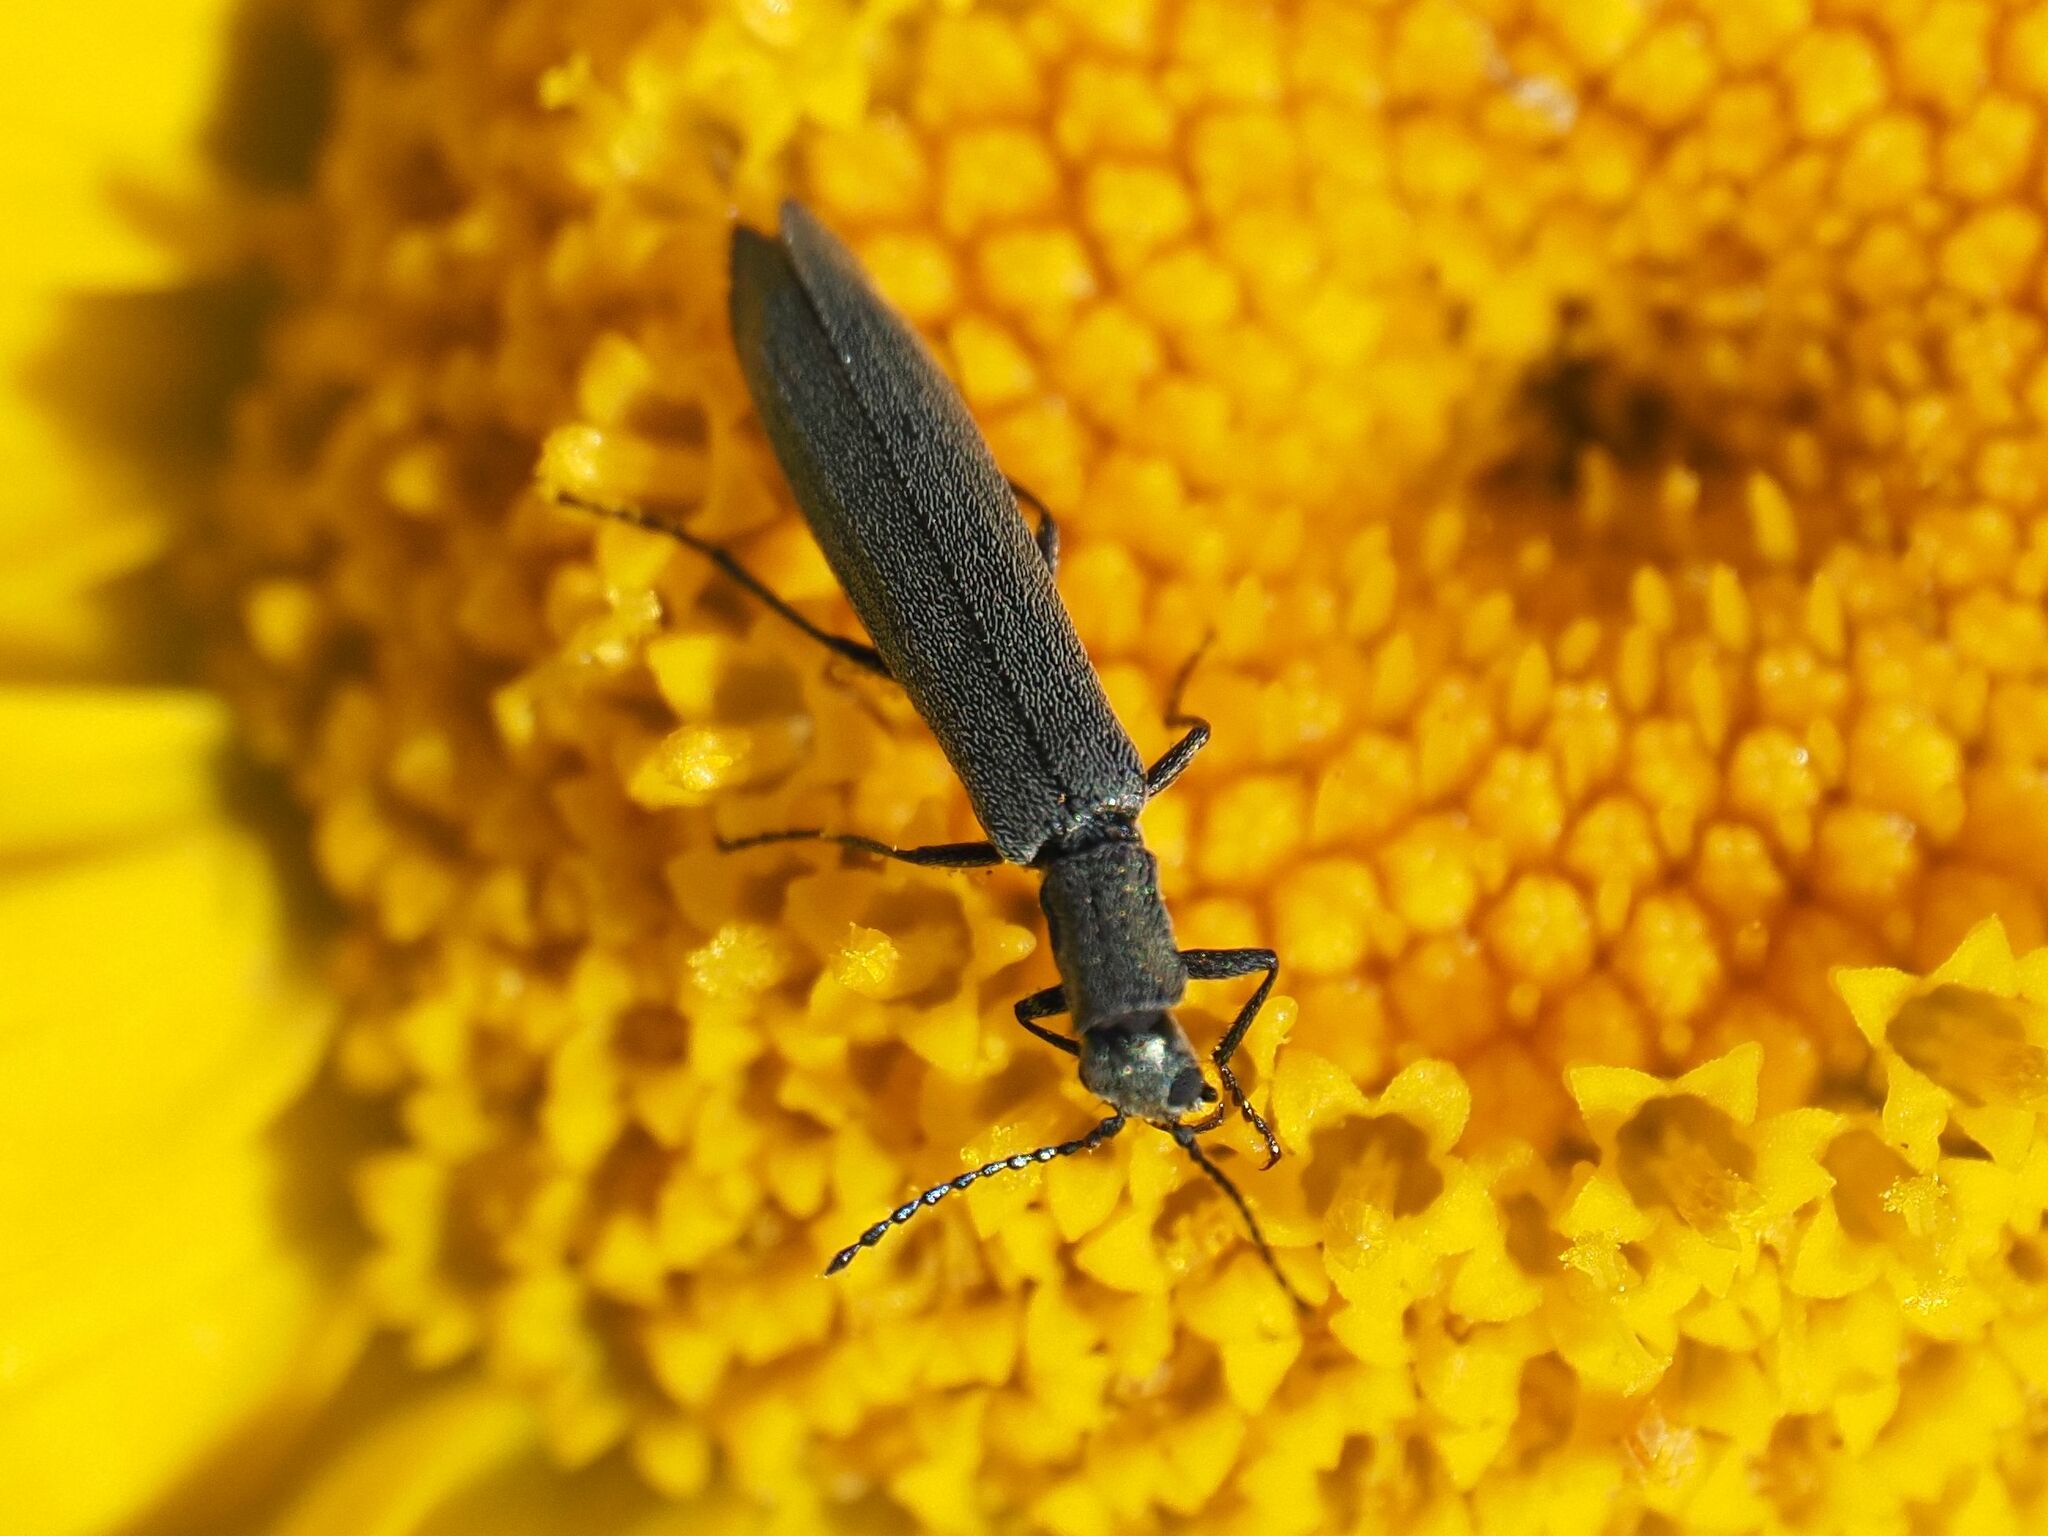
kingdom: Animalia
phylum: Arthropoda
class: Insecta
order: Coleoptera
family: Melyridae
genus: Dolichosoma
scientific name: Dolichosoma lineare
